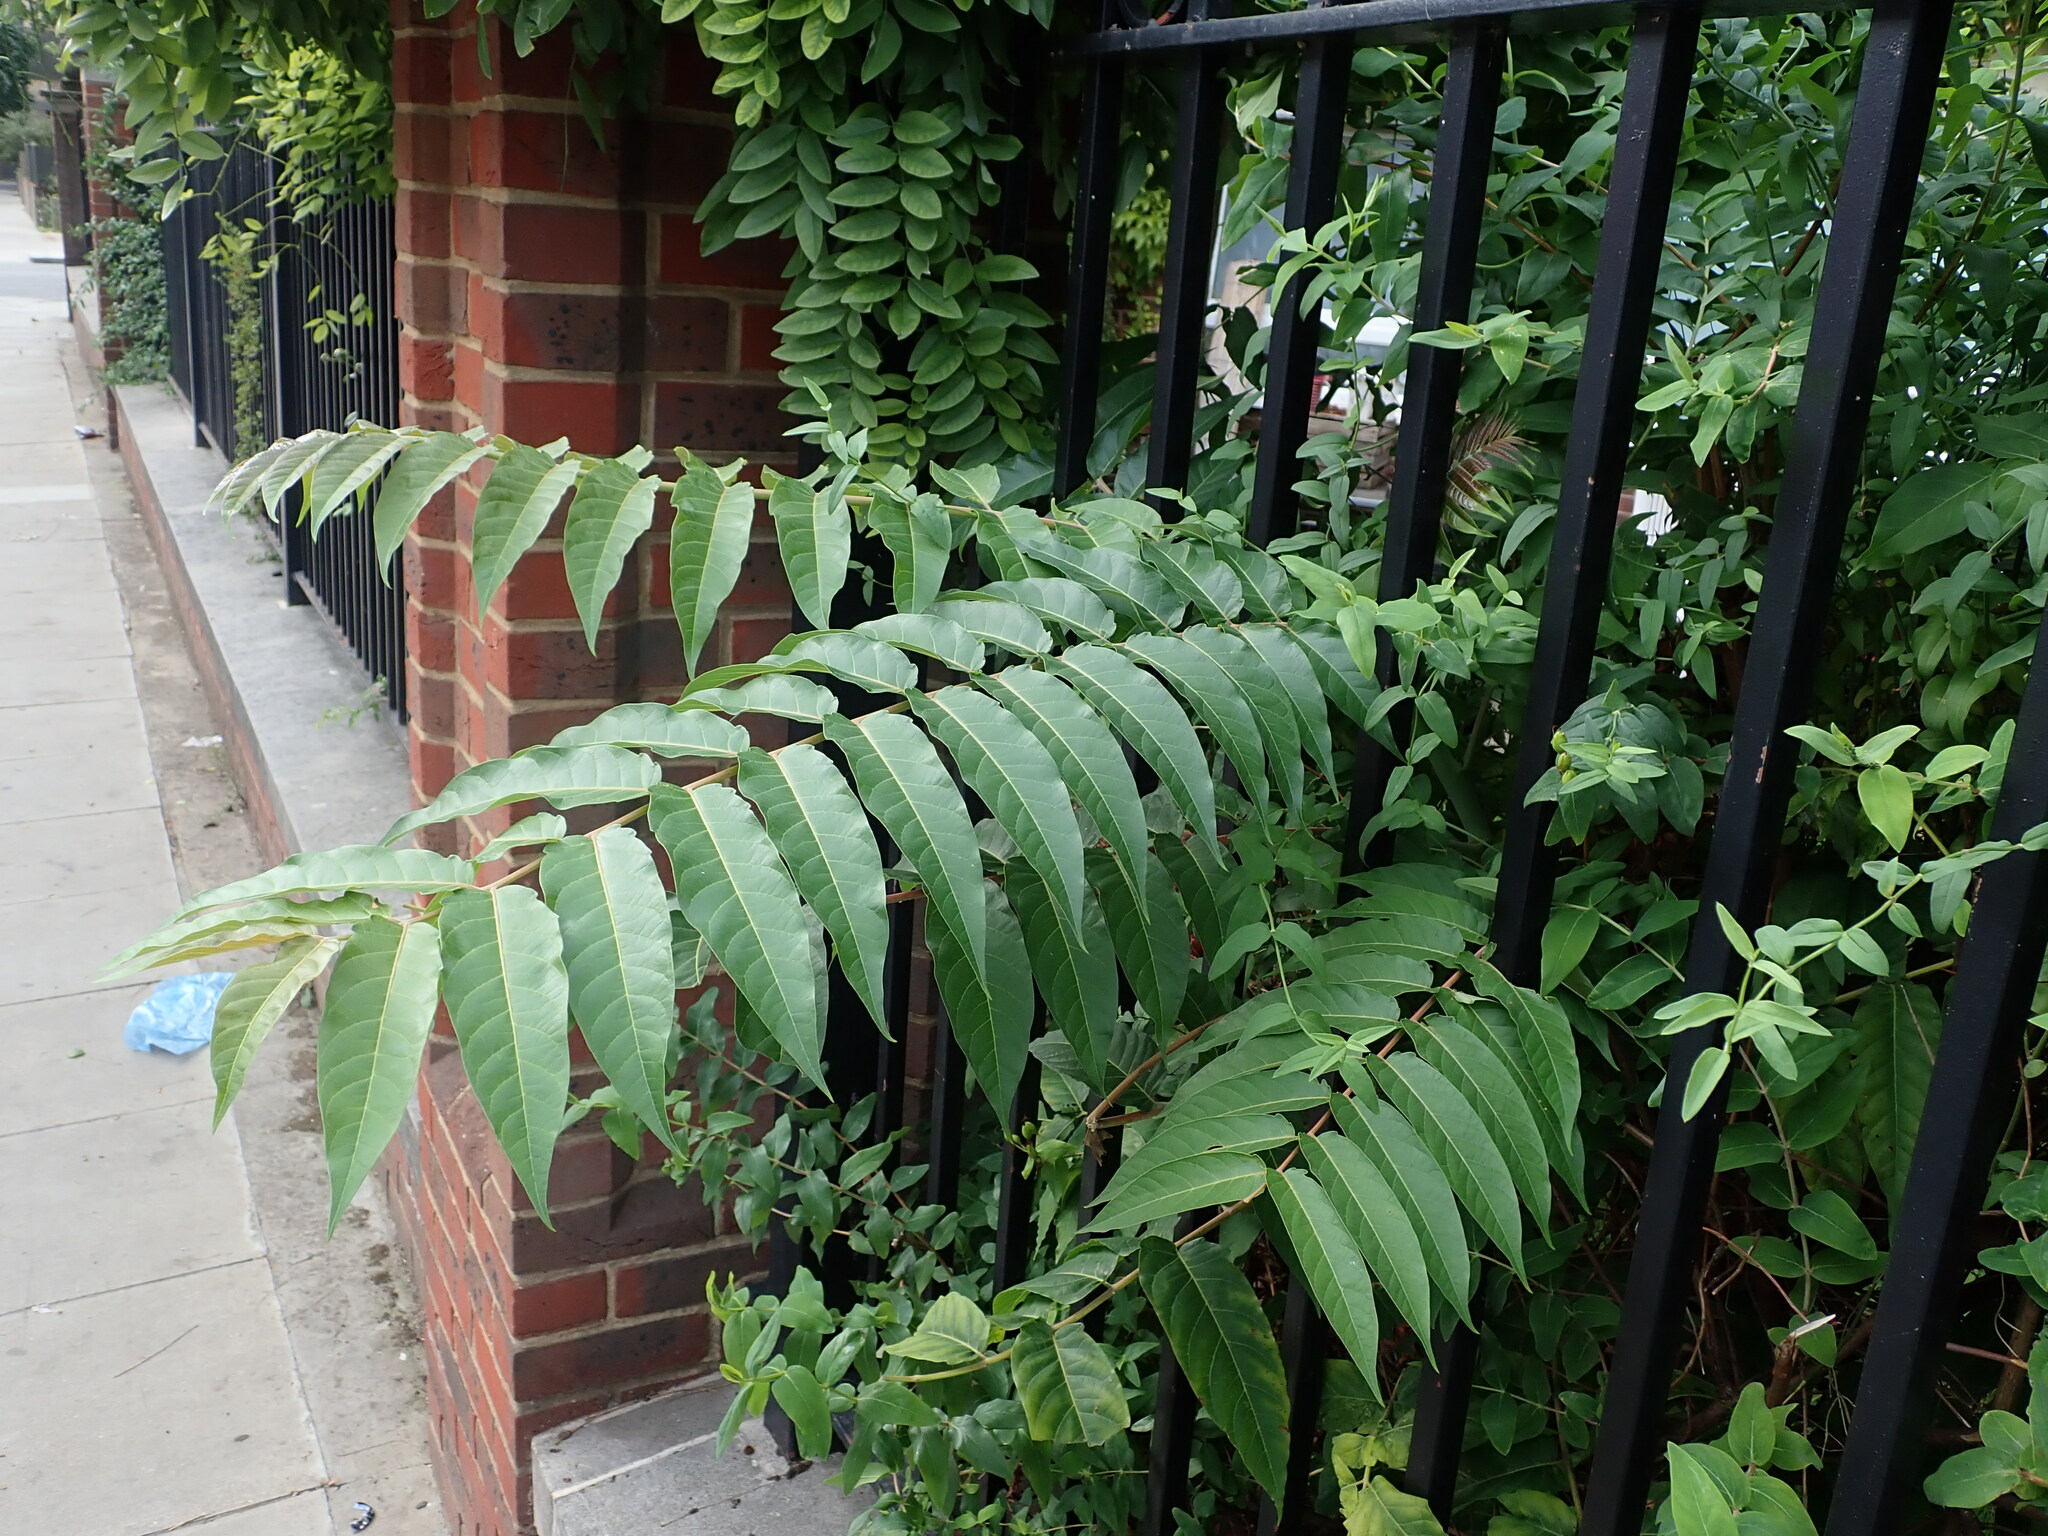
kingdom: Plantae
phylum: Tracheophyta
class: Magnoliopsida
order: Sapindales
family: Simaroubaceae
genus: Ailanthus
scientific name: Ailanthus altissima
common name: Tree-of-heaven
